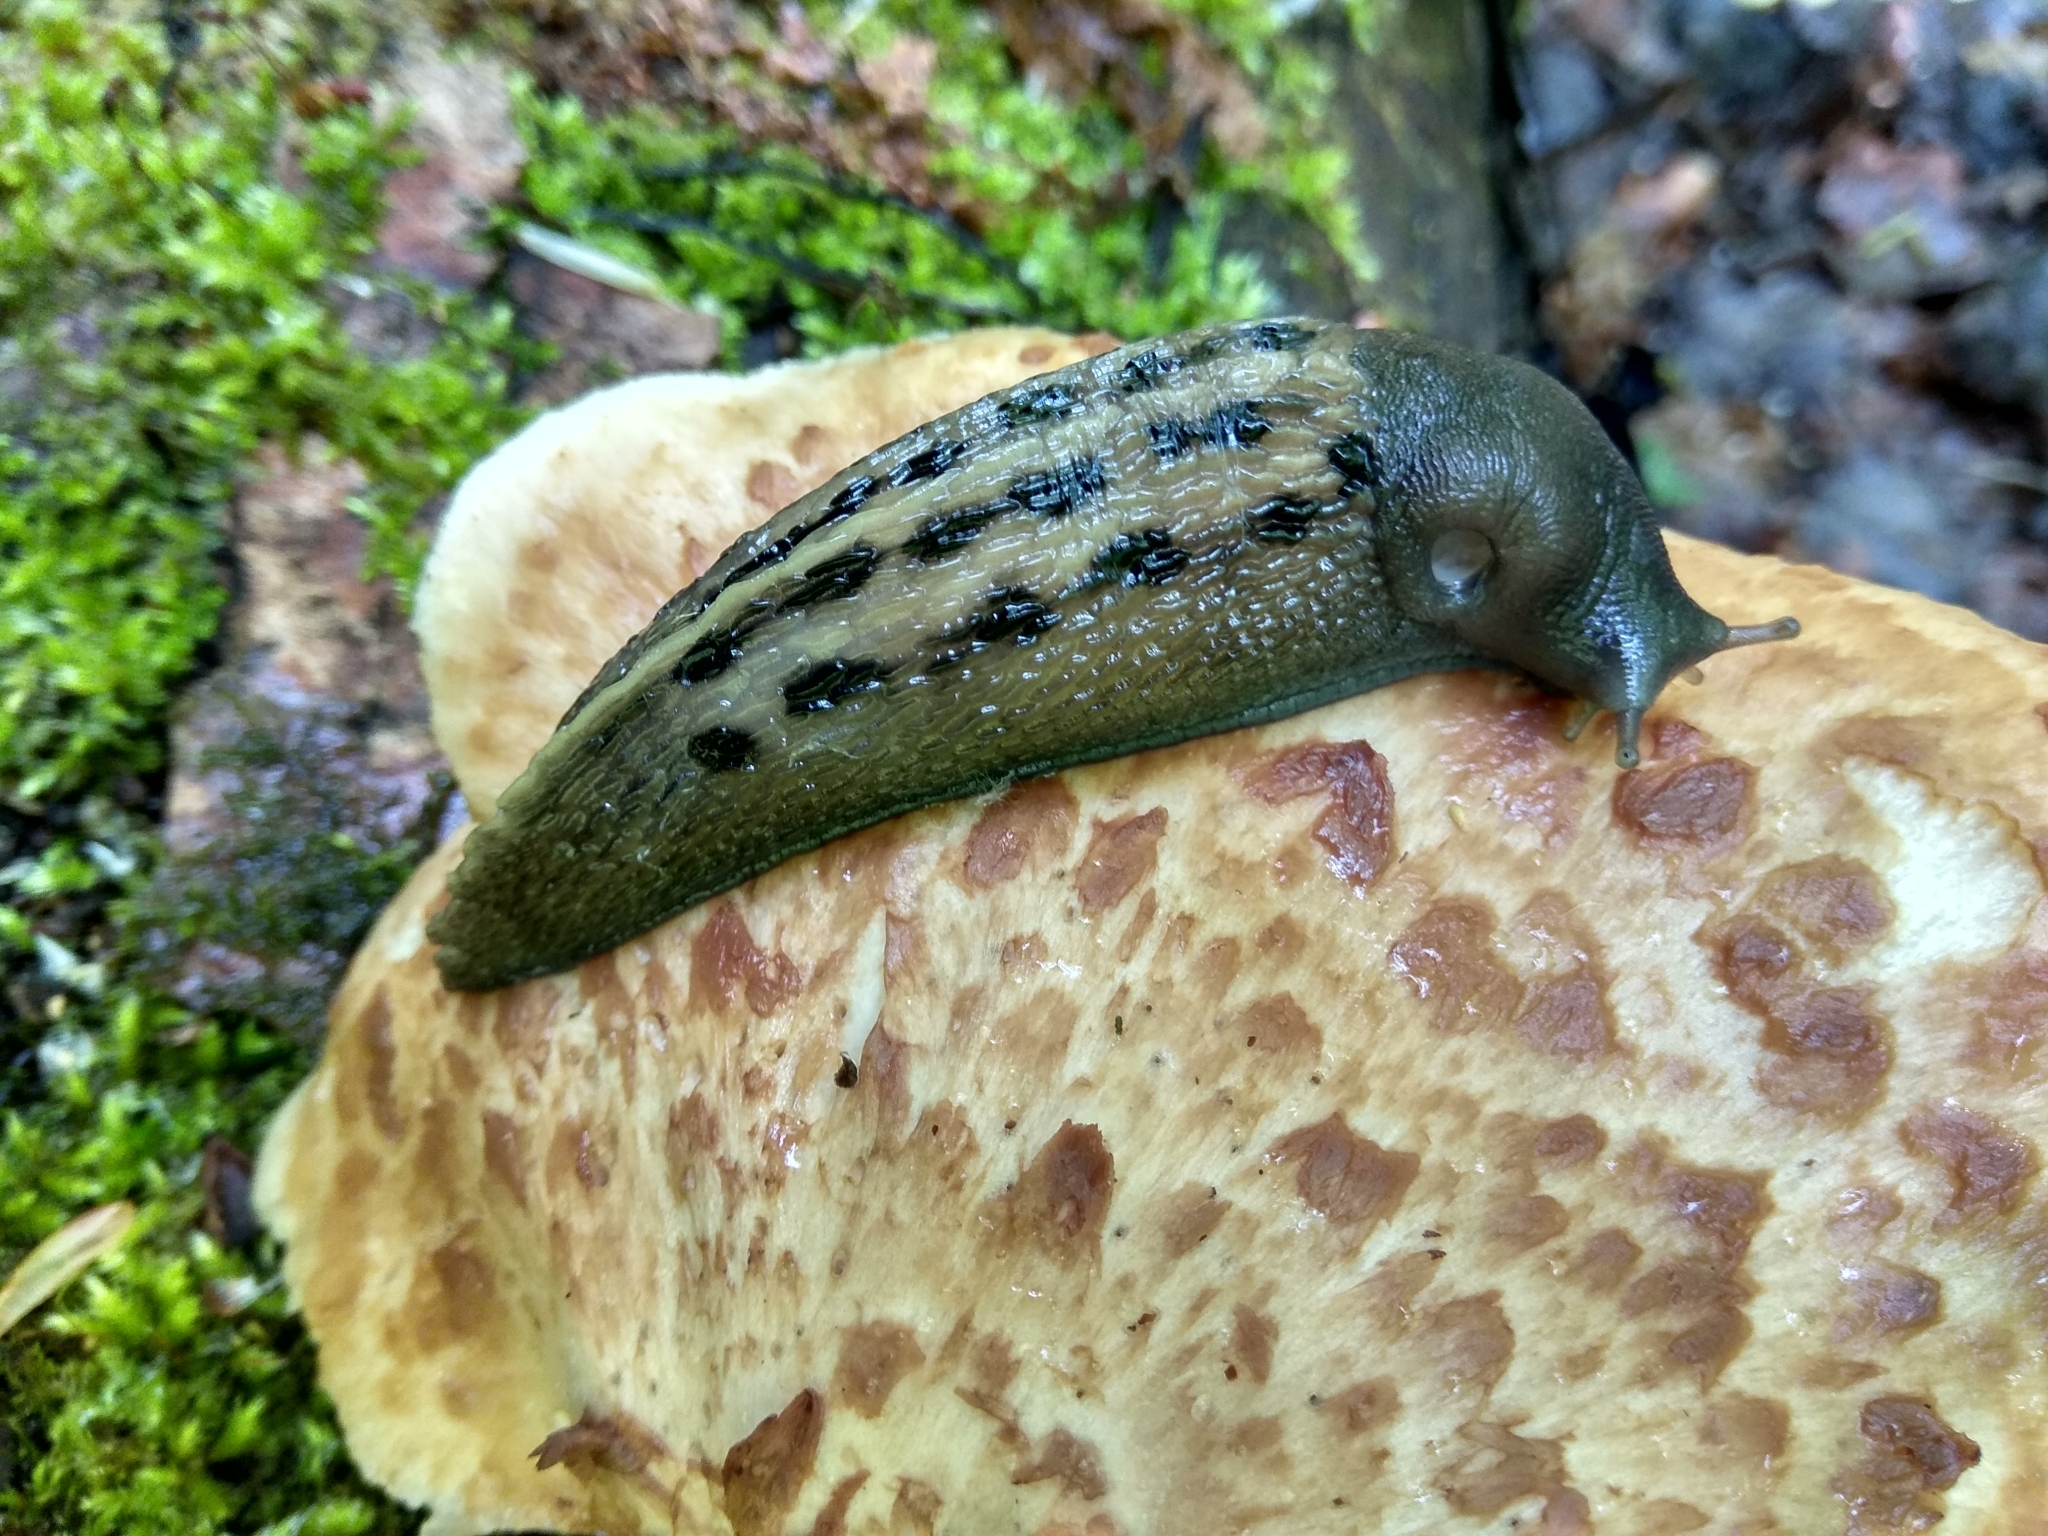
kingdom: Animalia
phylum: Mollusca
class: Gastropoda
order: Stylommatophora
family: Limacidae
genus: Limax
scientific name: Limax cinereoniger
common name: Ash-black slug
